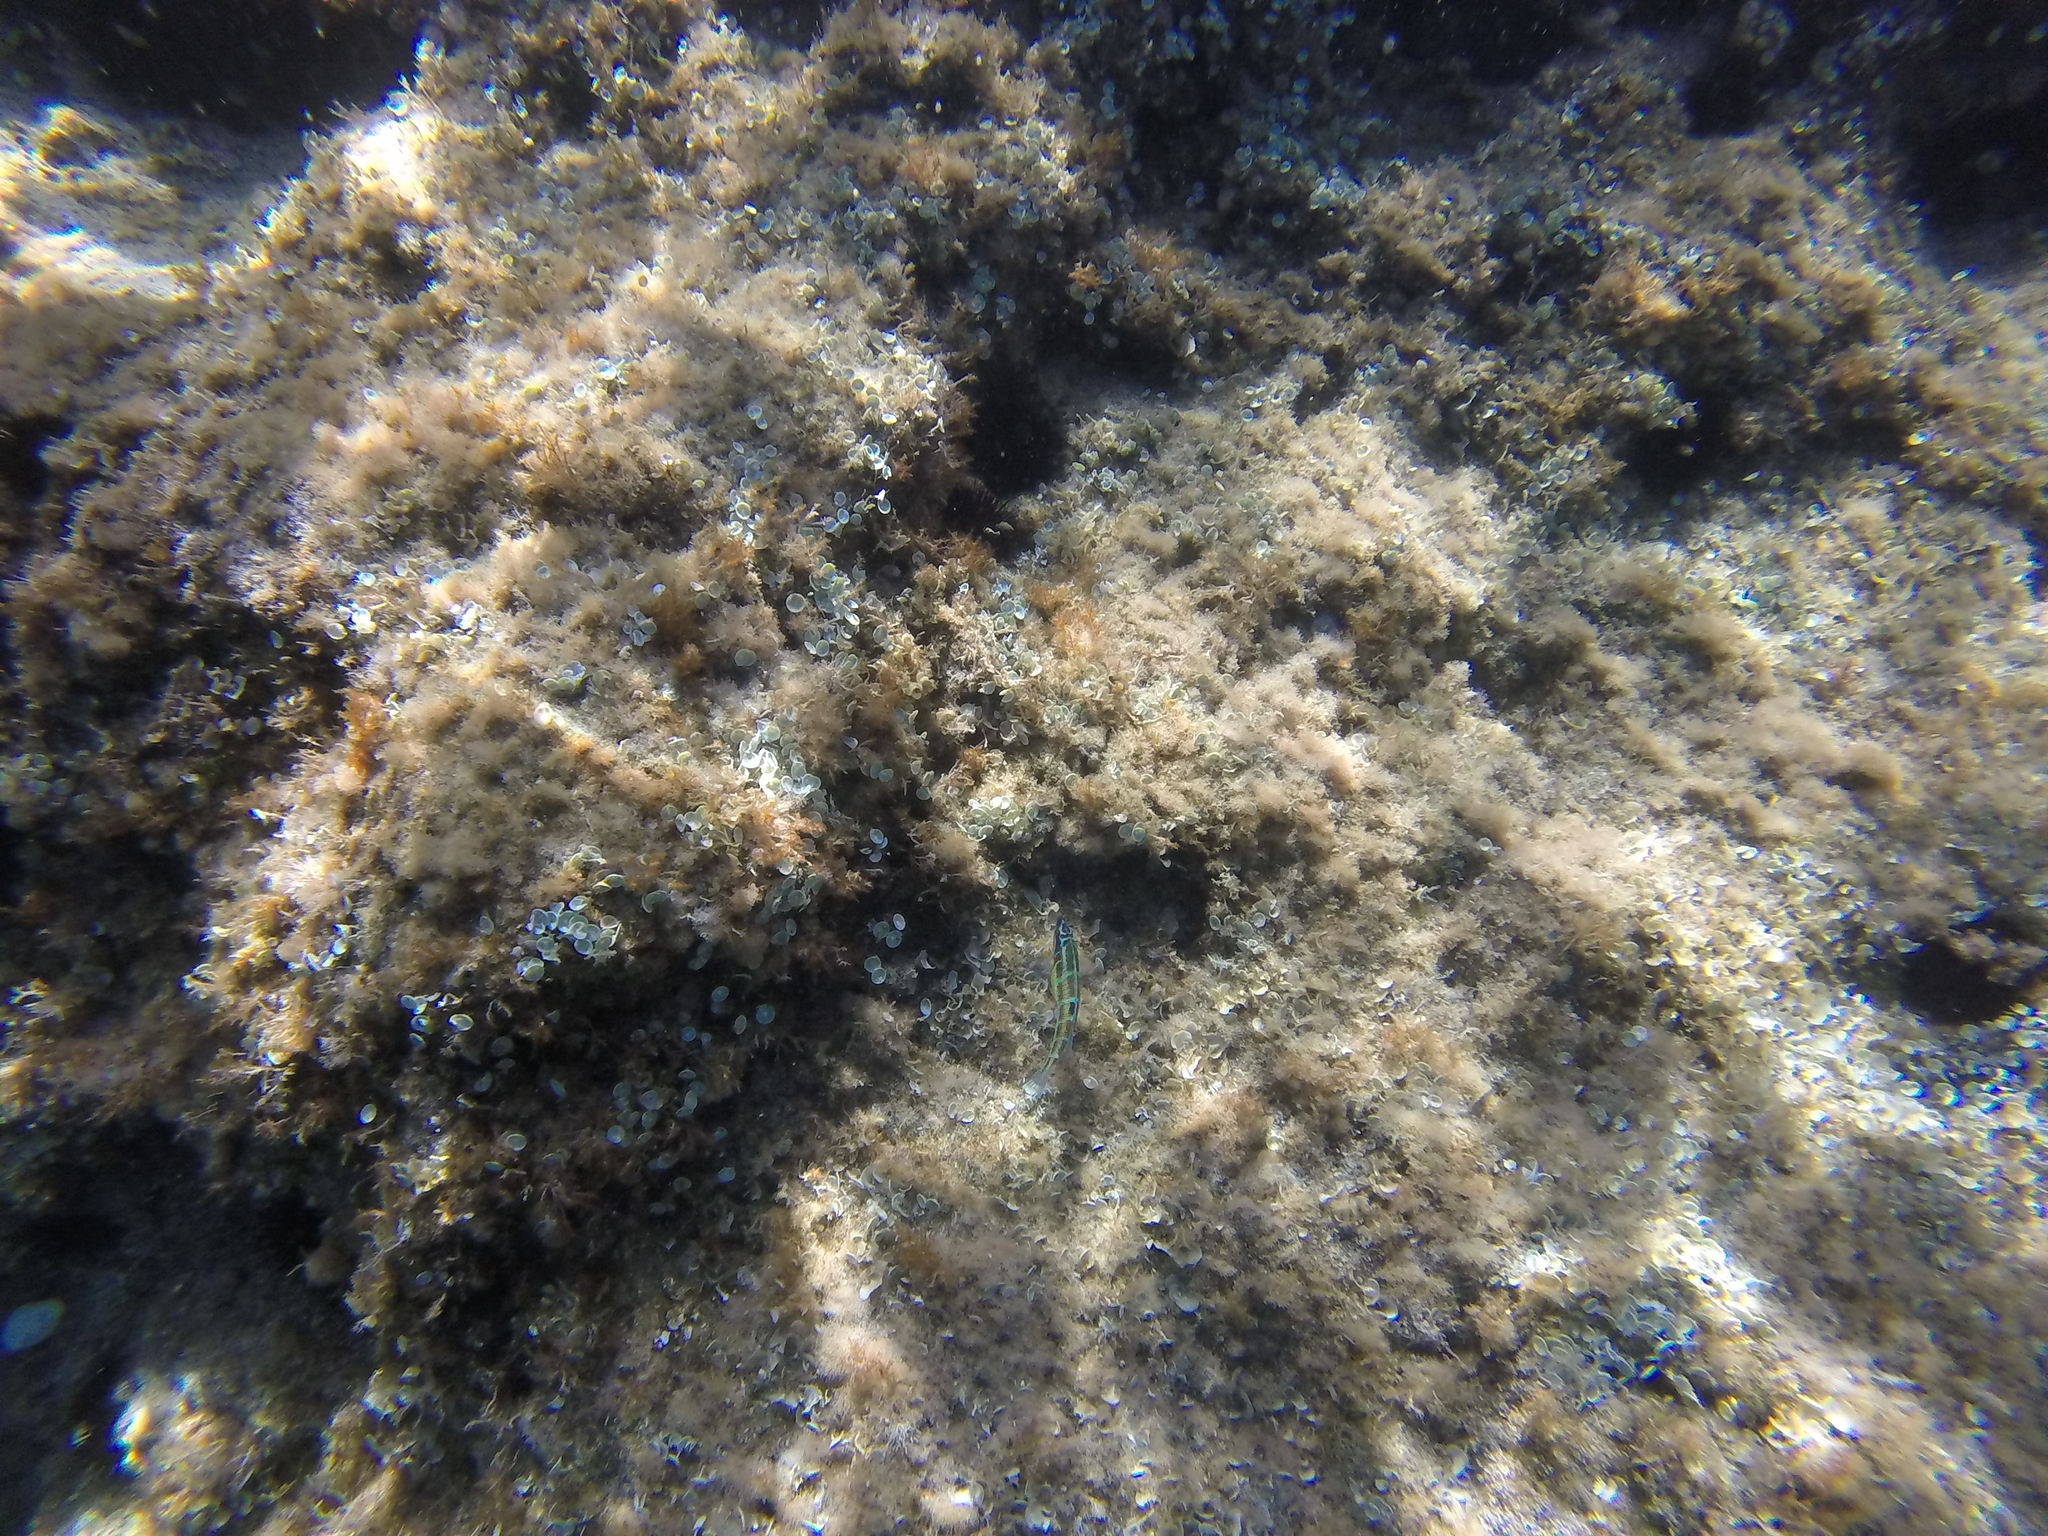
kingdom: Animalia
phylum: Chordata
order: Perciformes
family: Labridae
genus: Thalassoma
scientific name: Thalassoma pavo
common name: Ornate wrasse
